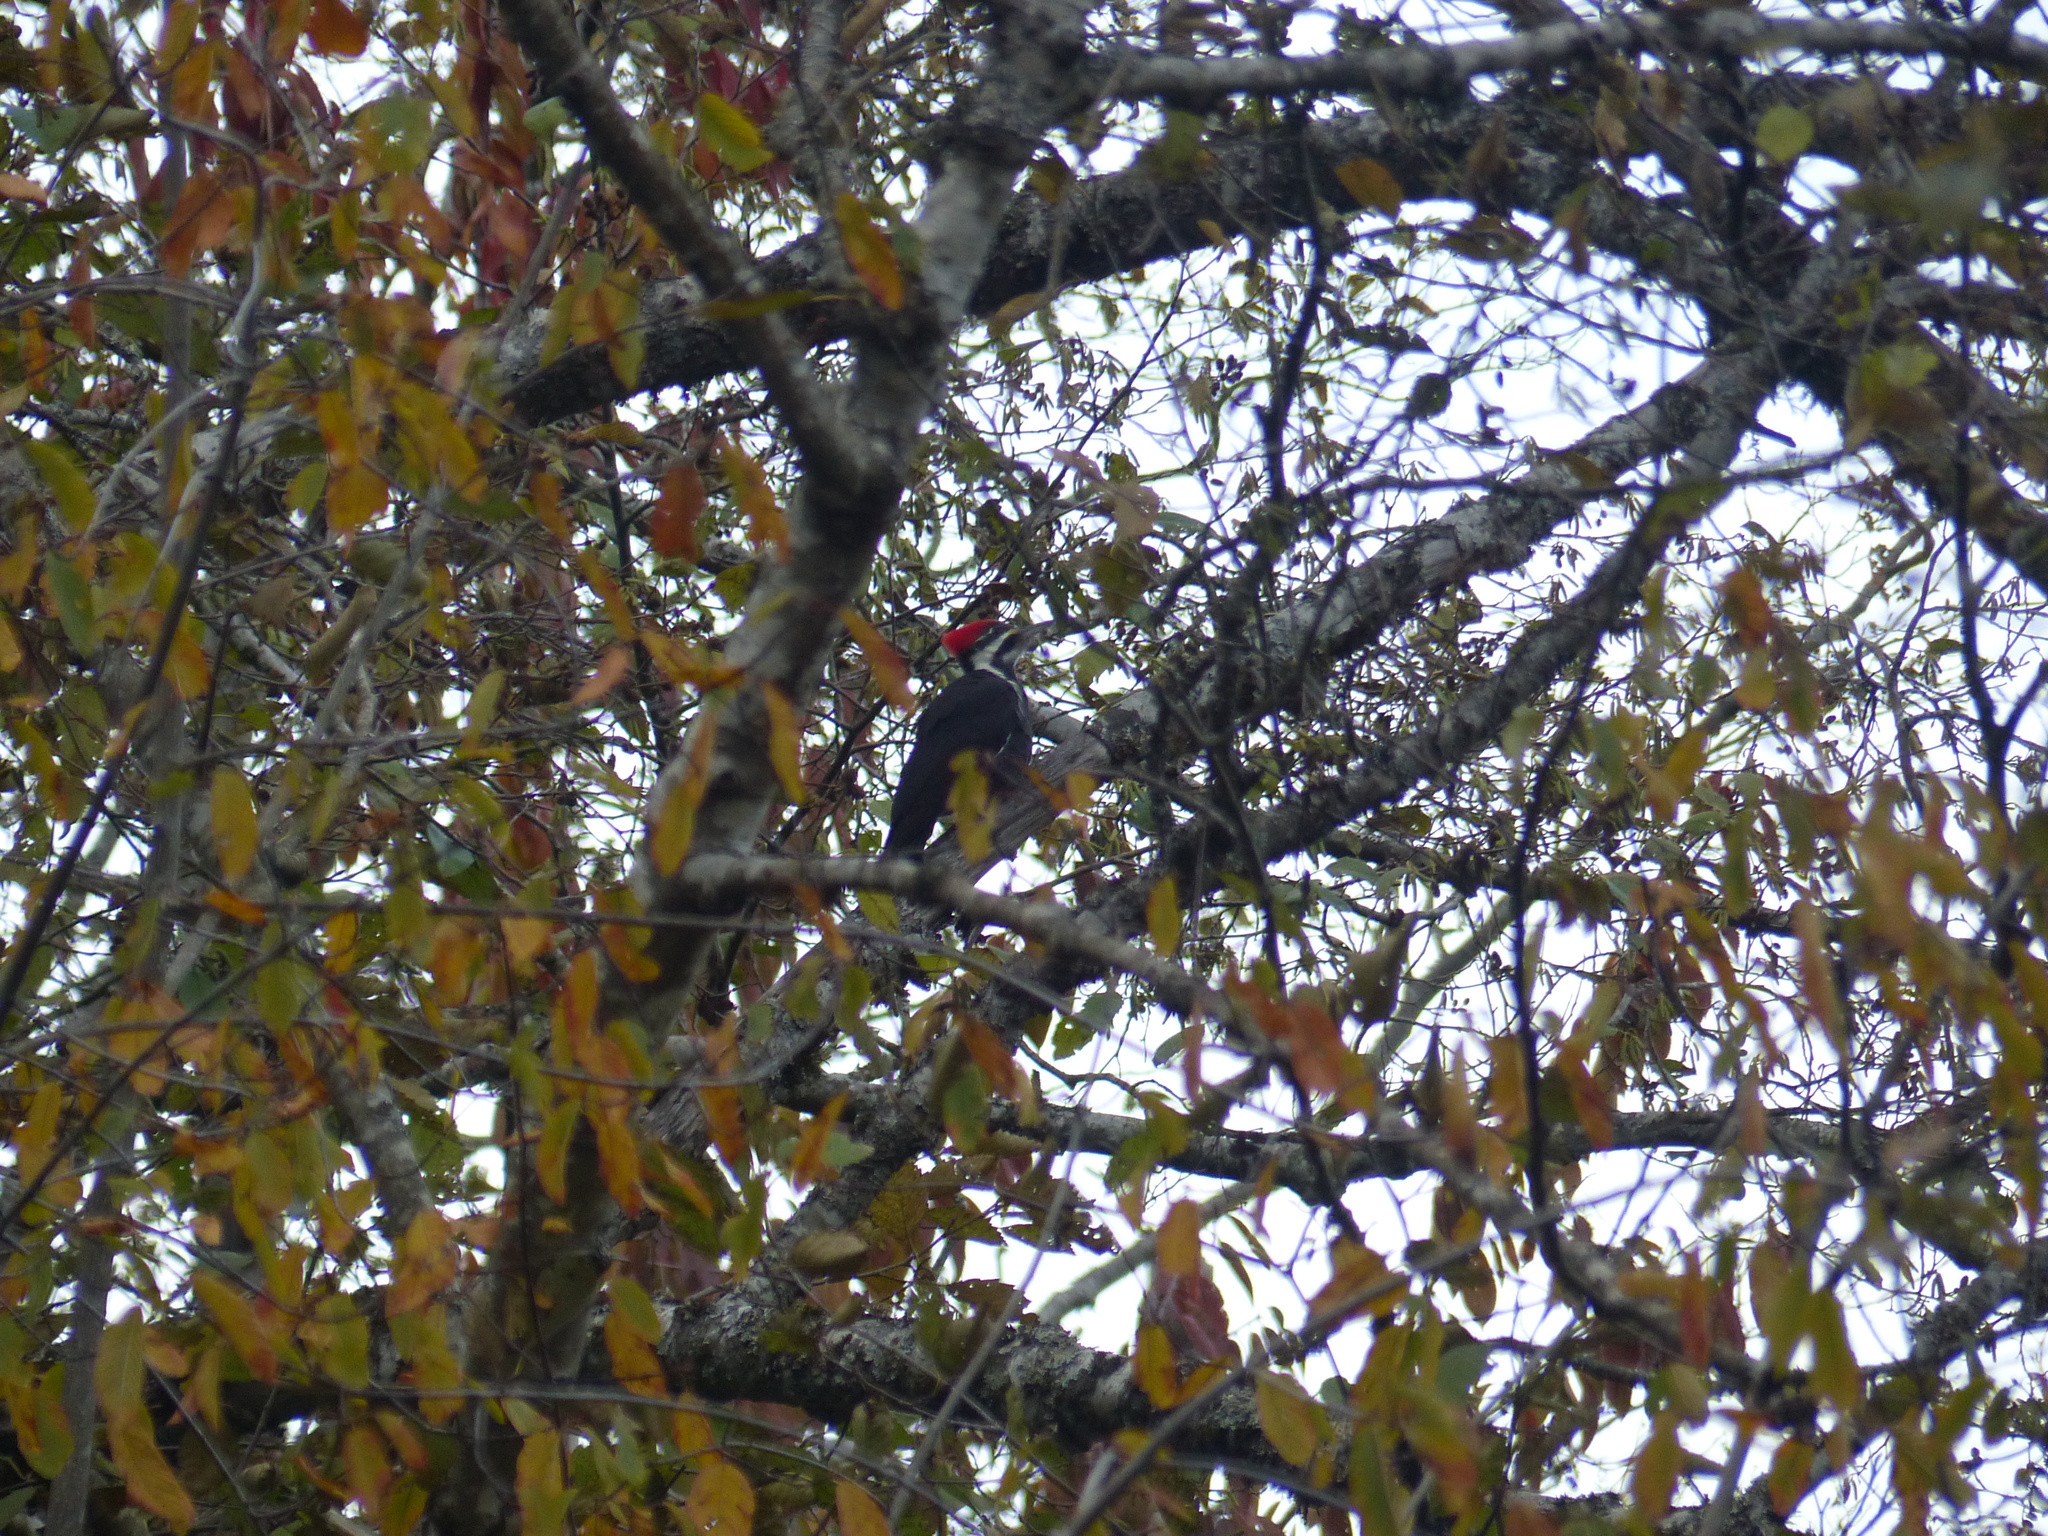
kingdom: Animalia
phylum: Chordata
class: Aves
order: Piciformes
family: Picidae
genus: Dryocopus
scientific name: Dryocopus pileatus
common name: Pileated woodpecker
